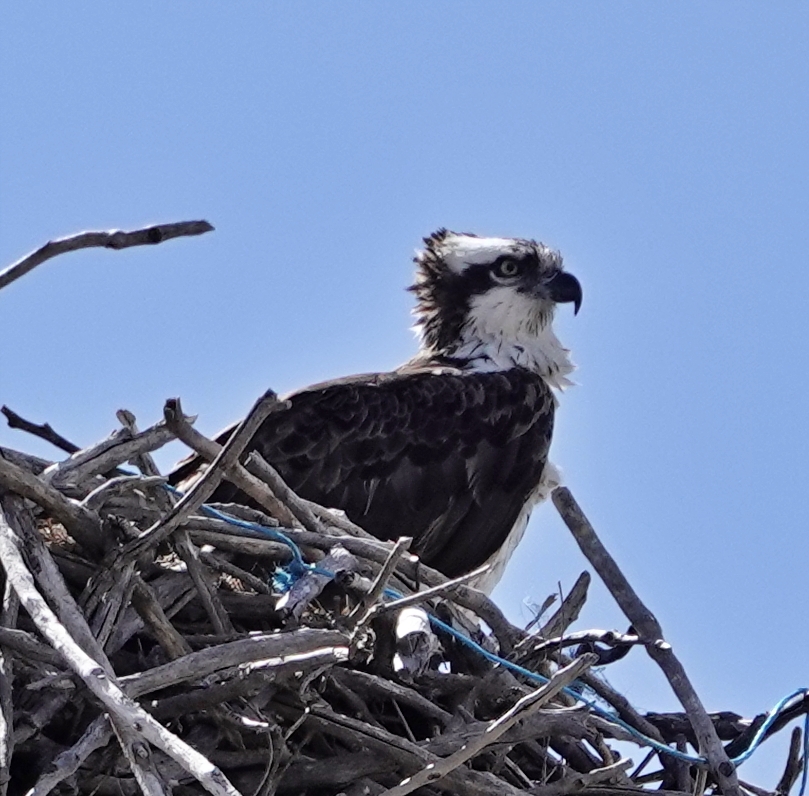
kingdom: Animalia
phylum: Chordata
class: Aves
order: Accipitriformes
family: Pandionidae
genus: Pandion
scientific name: Pandion haliaetus
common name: Osprey
